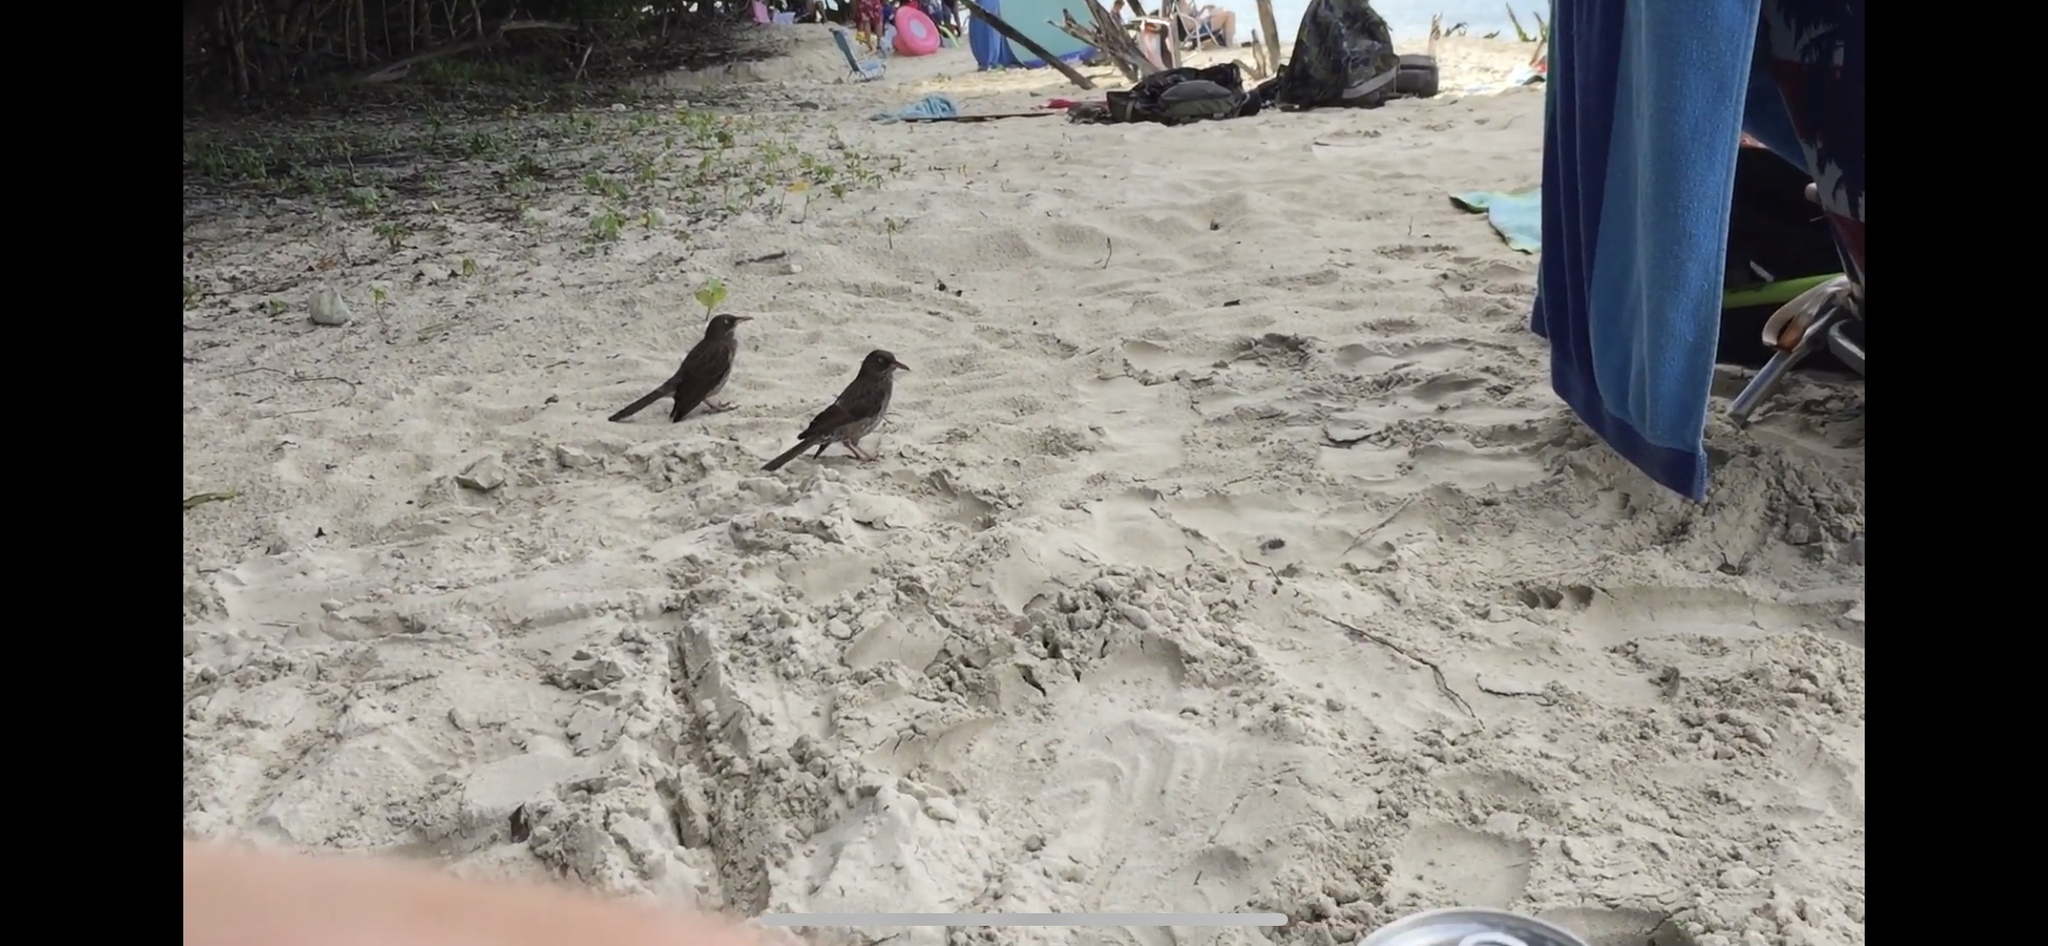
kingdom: Animalia
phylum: Chordata
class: Aves
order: Passeriformes
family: Mimidae
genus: Margarops
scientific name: Margarops fuscatus
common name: Pearly-eyed thrasher
